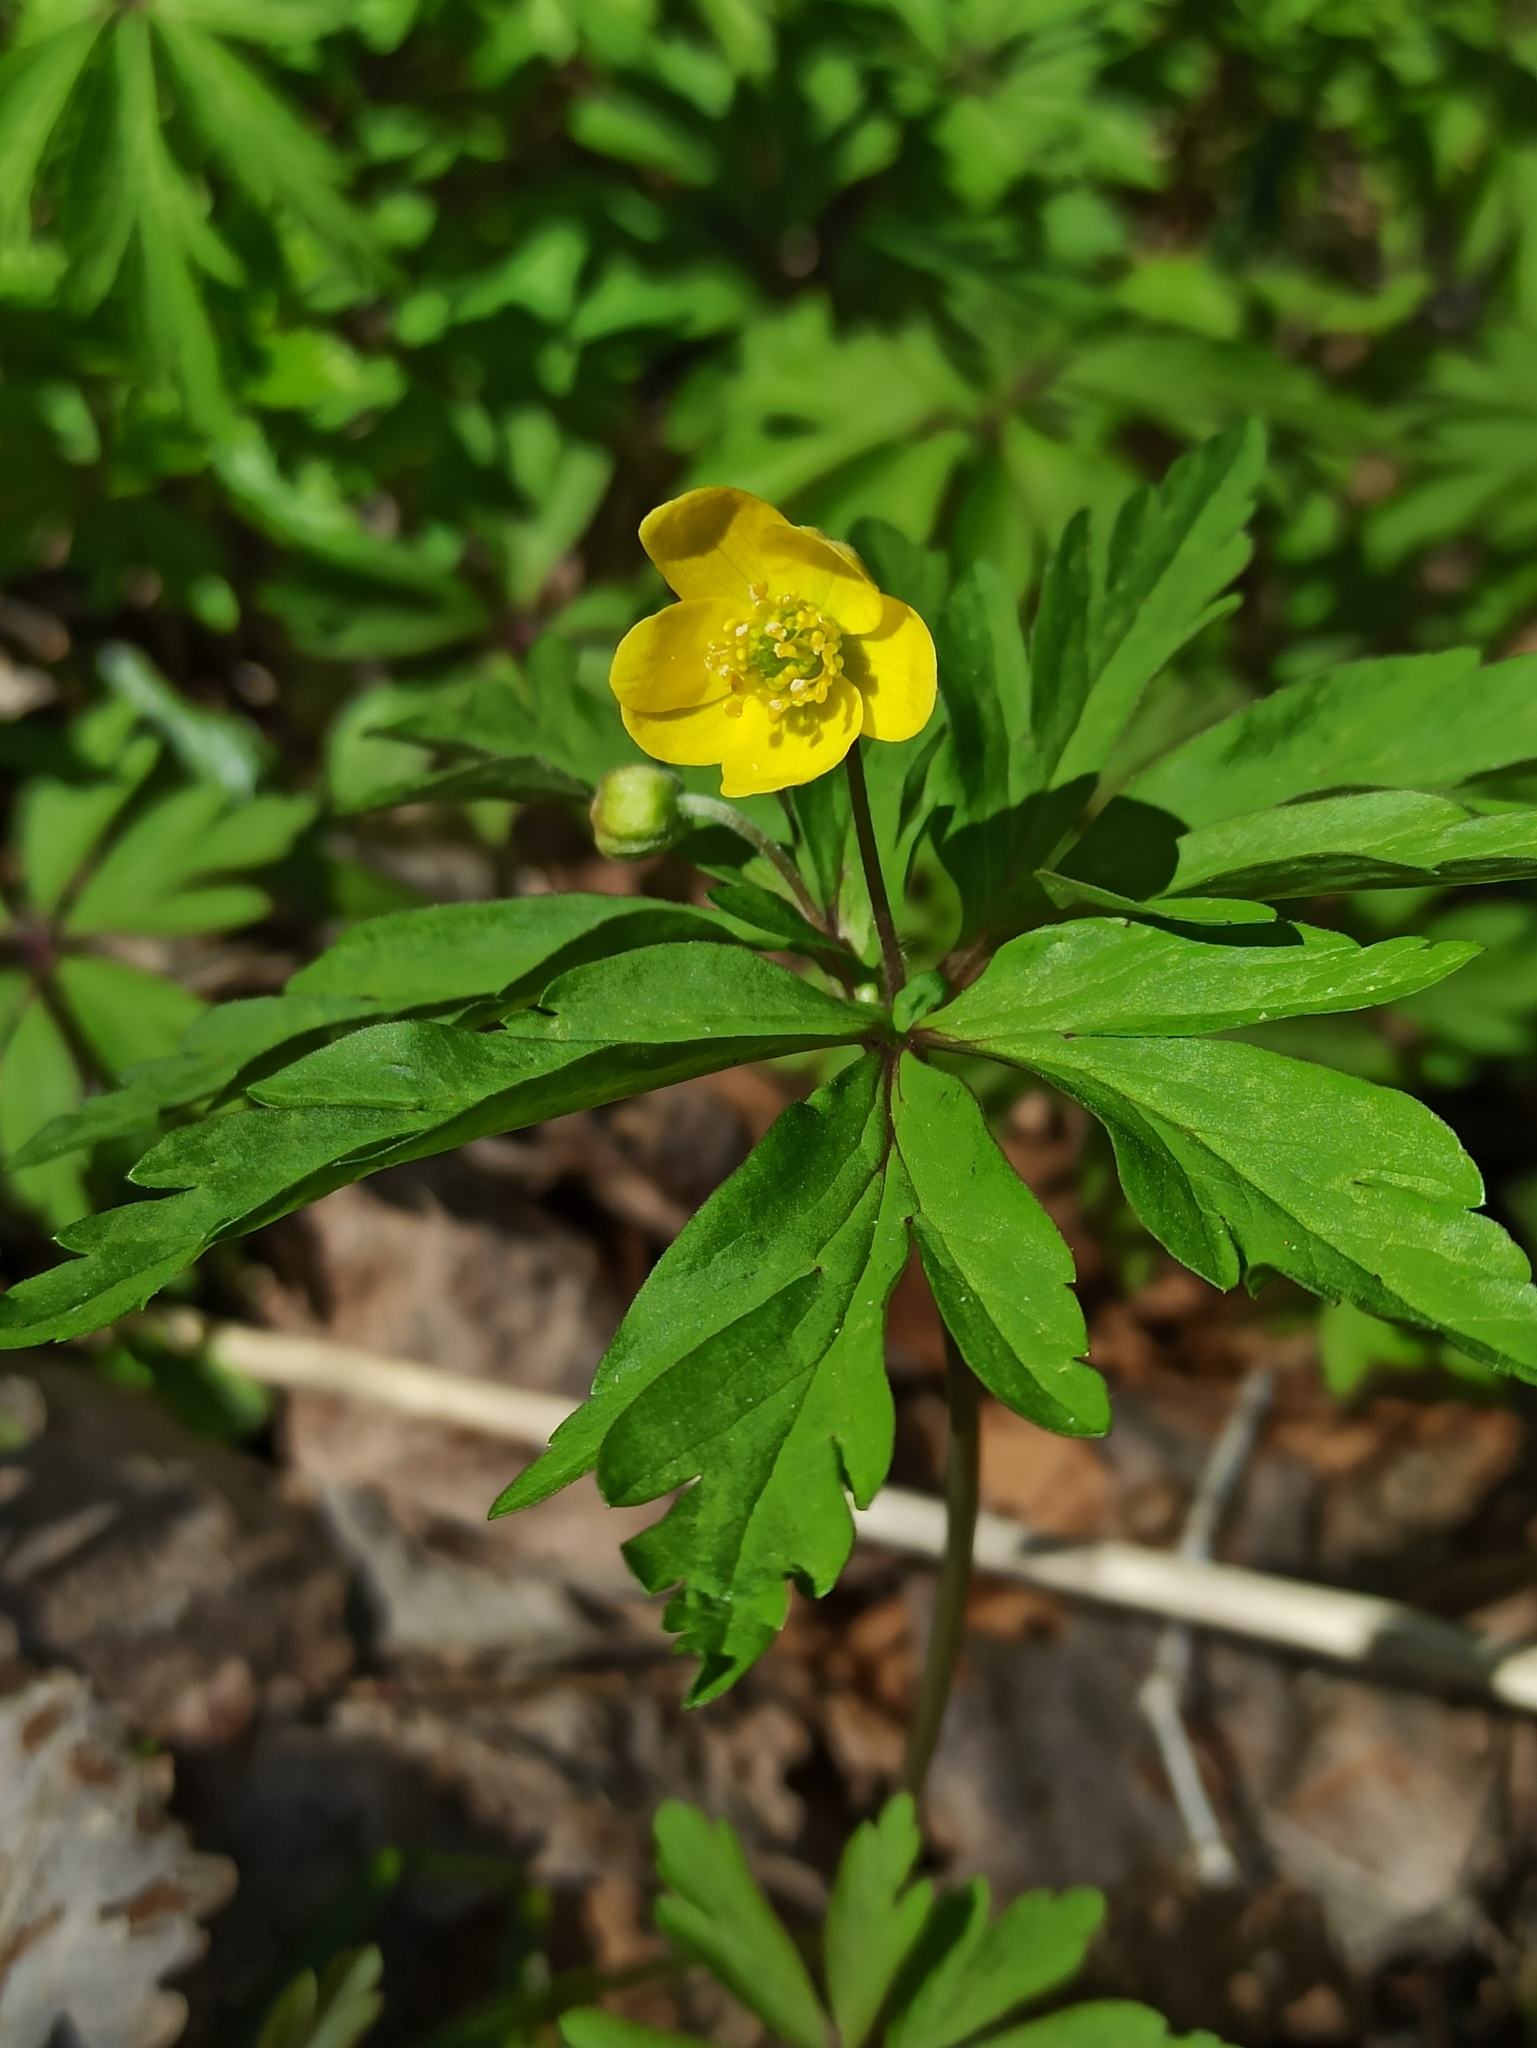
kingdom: Plantae
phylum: Tracheophyta
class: Magnoliopsida
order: Ranunculales
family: Ranunculaceae
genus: Anemone
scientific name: Anemone ranunculoides
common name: Yellow anemone
